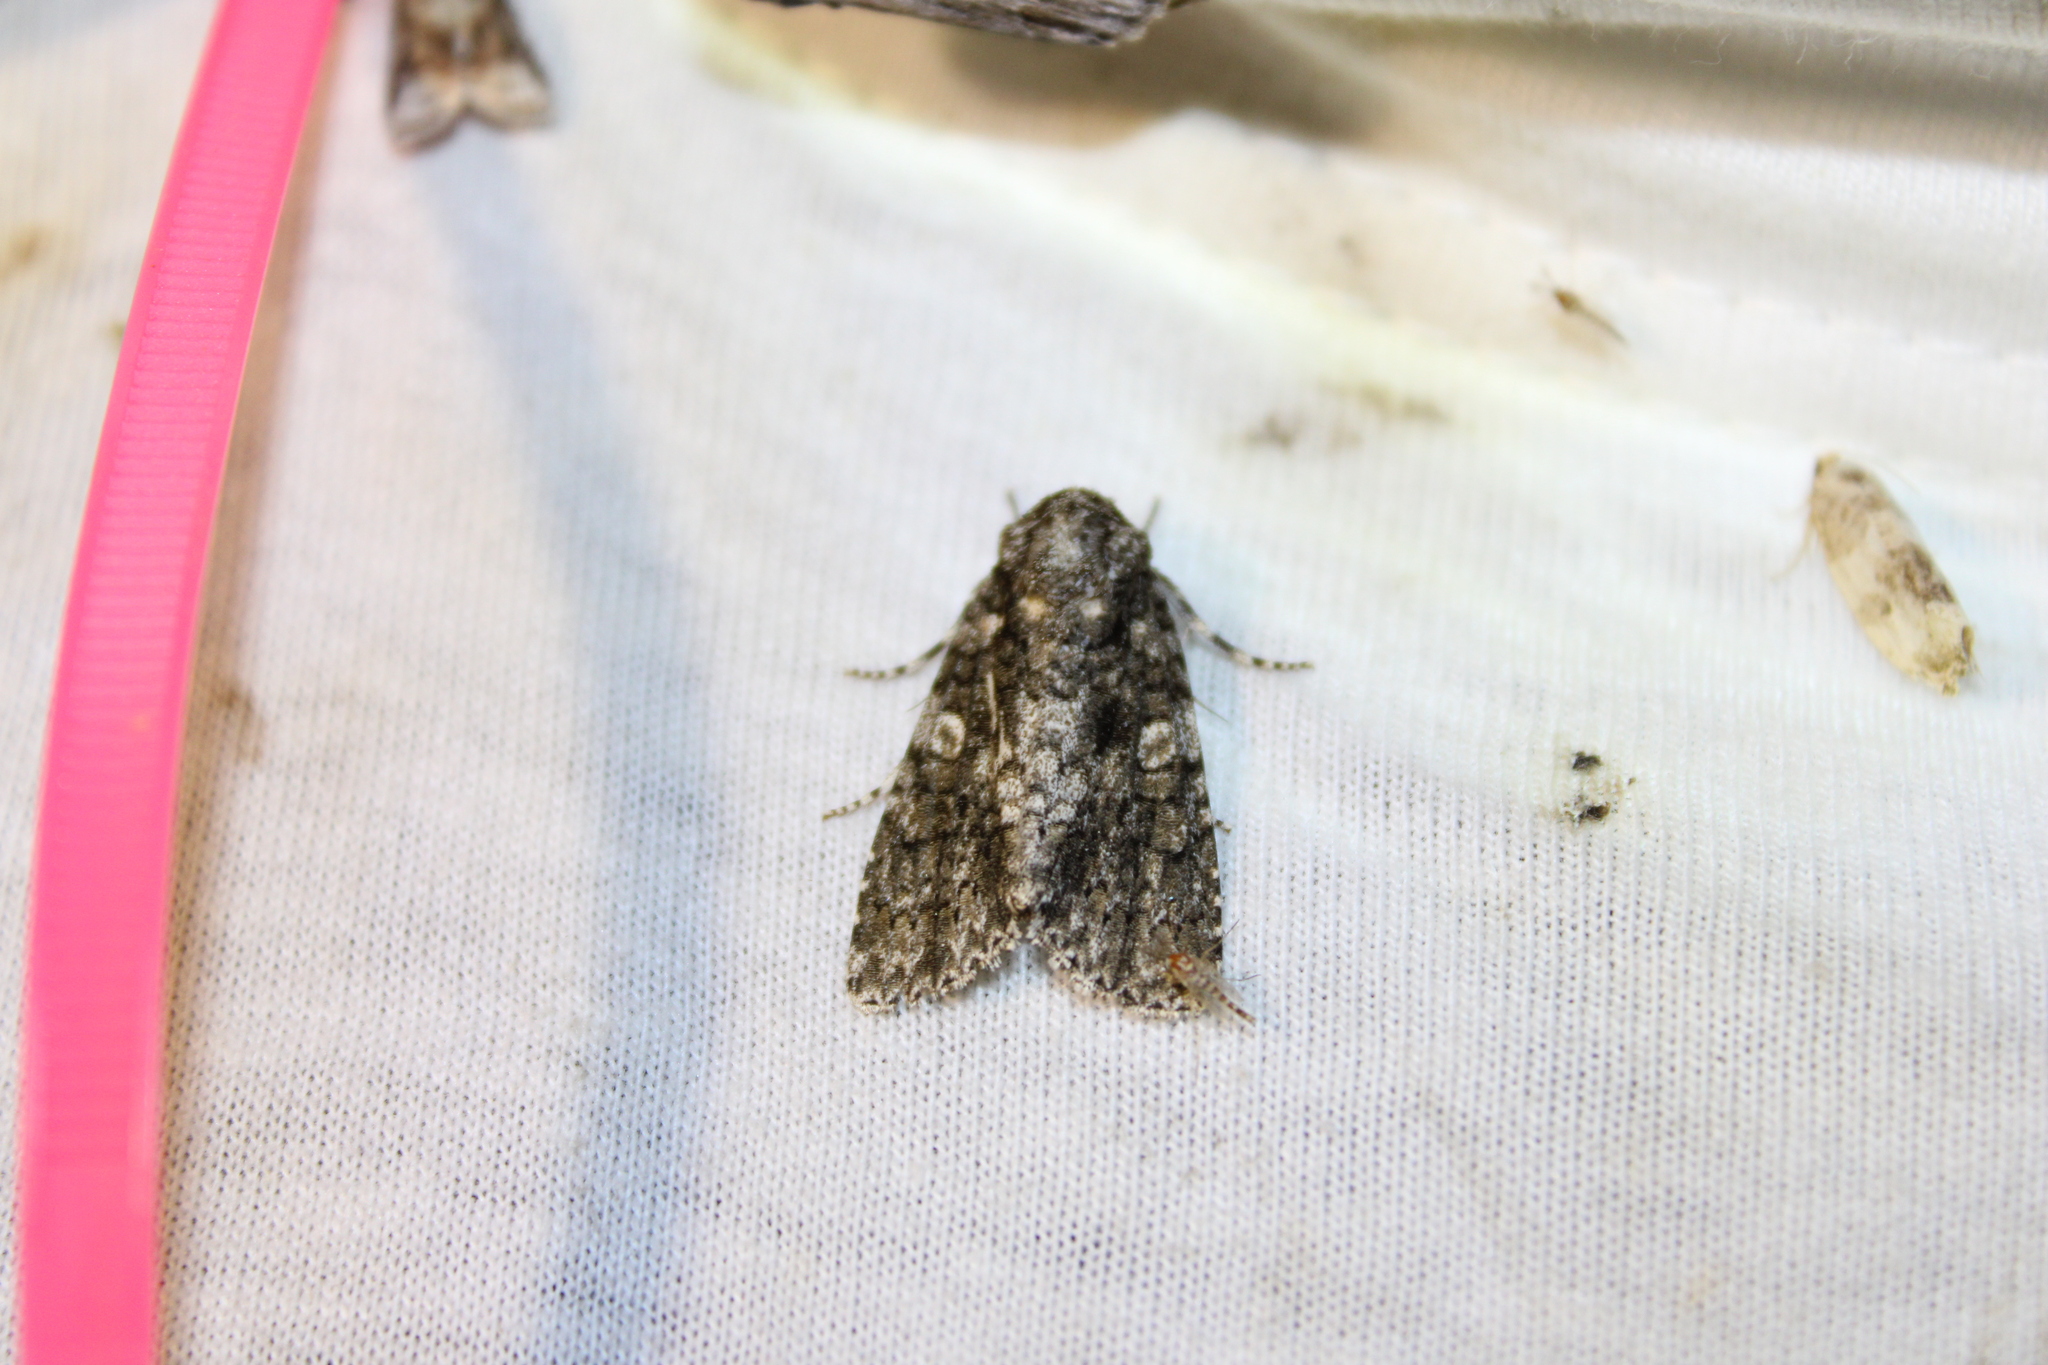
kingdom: Animalia
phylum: Arthropoda
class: Insecta
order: Lepidoptera
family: Noctuidae
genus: Acronicta
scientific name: Acronicta afflicta
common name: Afflicted dagger moth
